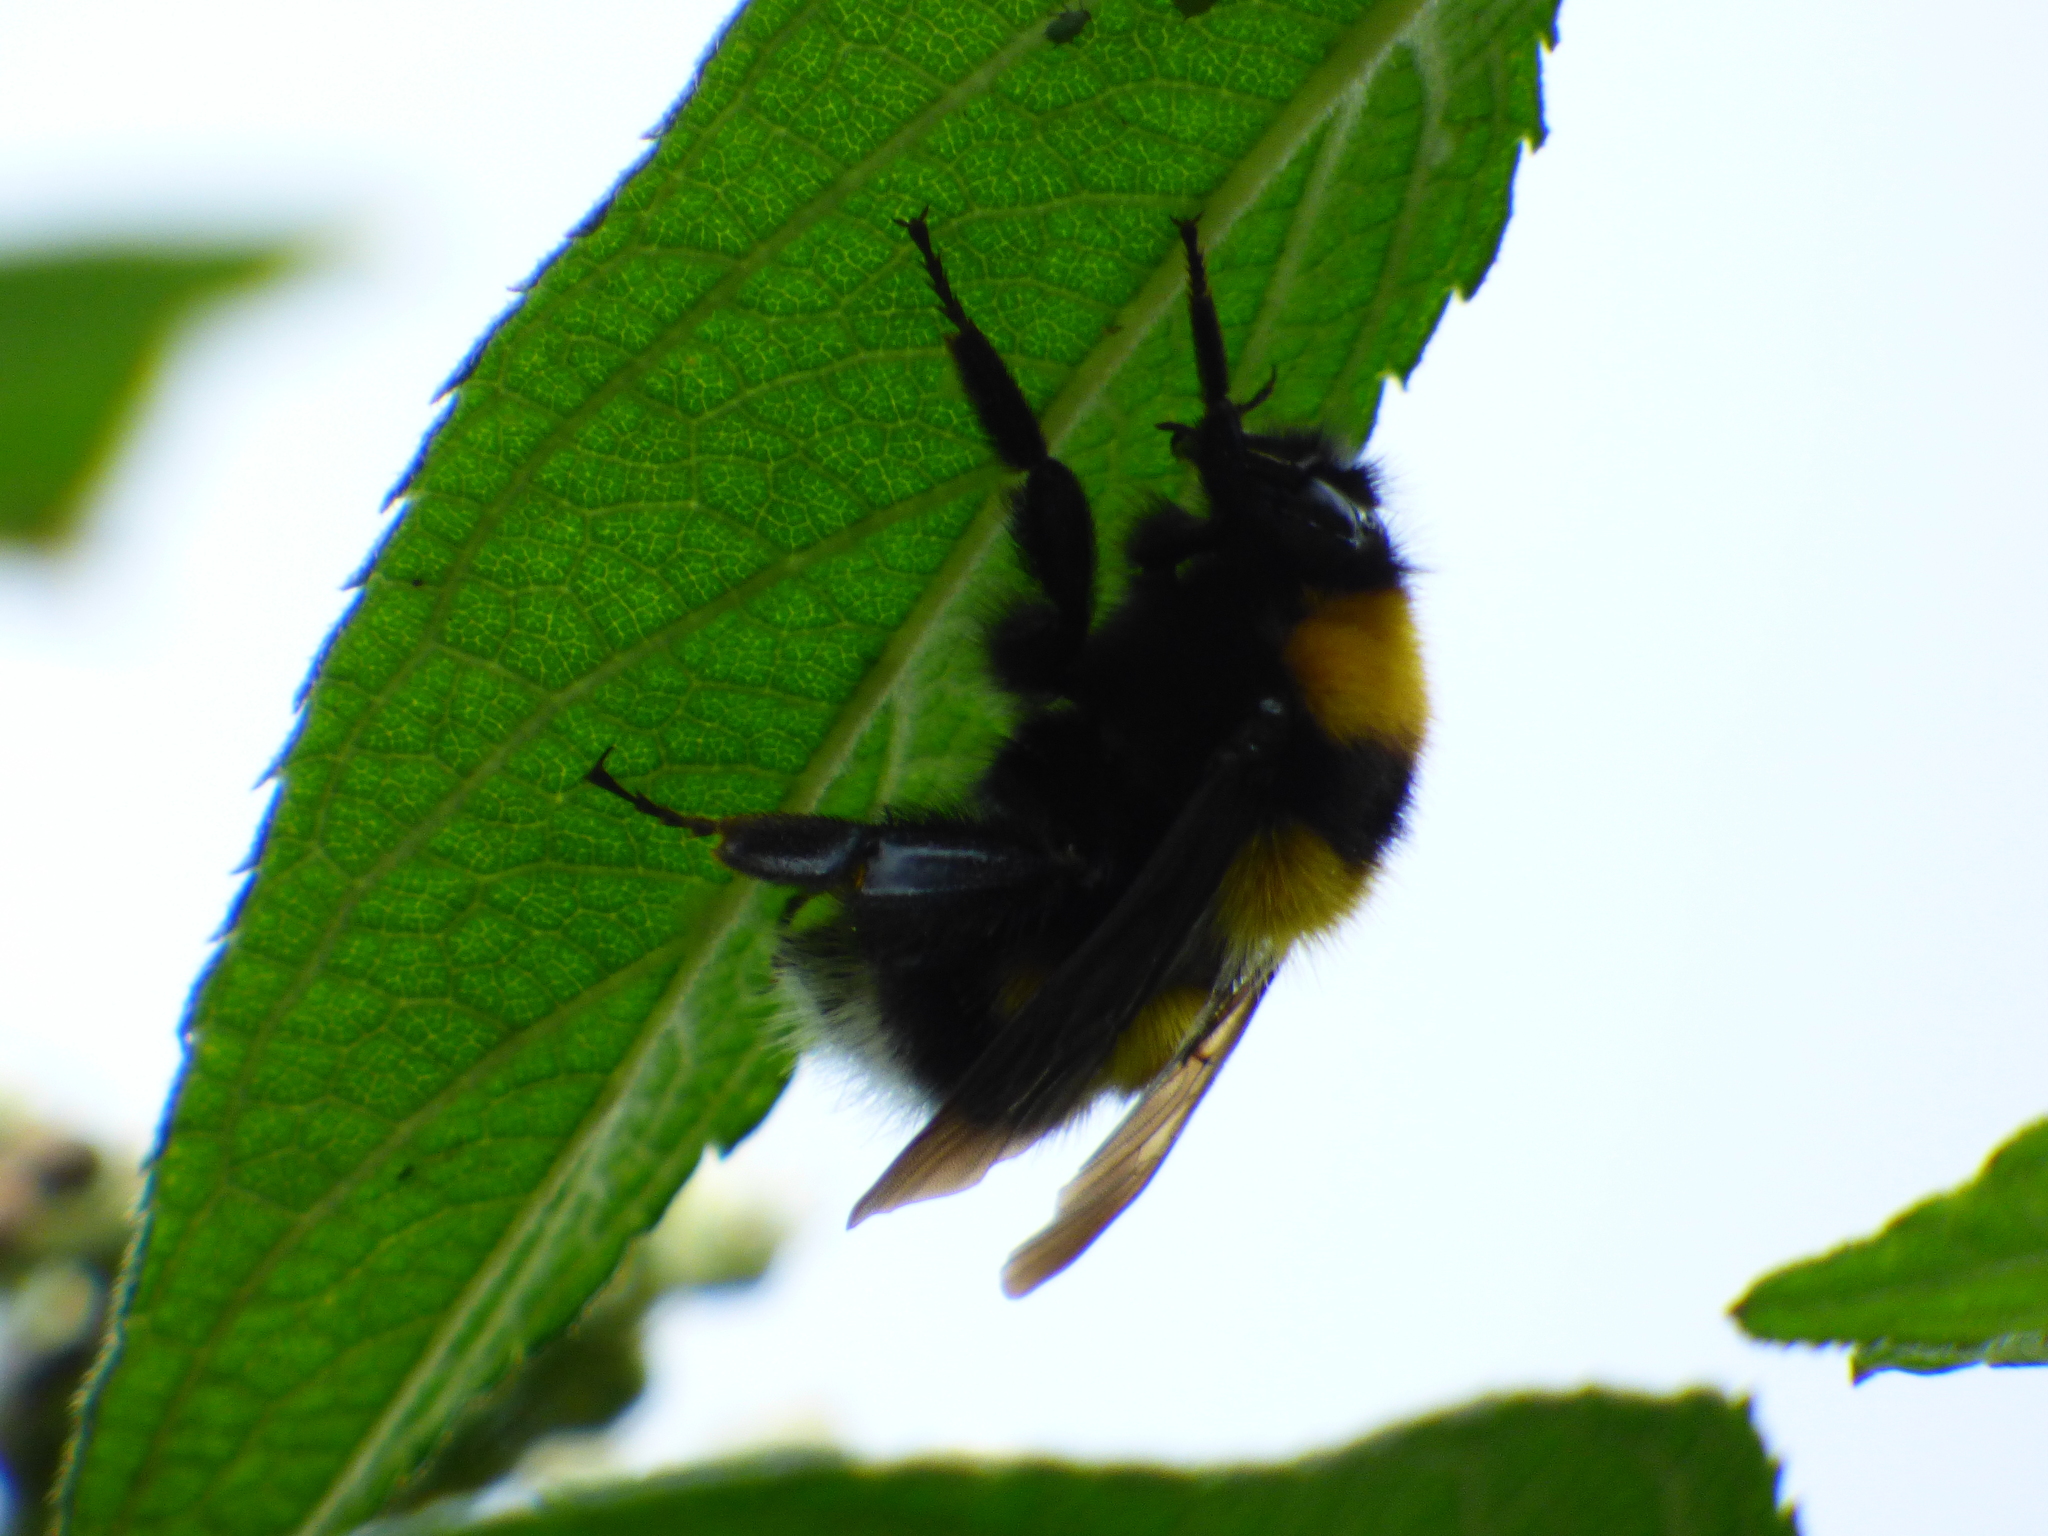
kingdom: Animalia
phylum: Arthropoda
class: Insecta
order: Hymenoptera
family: Apidae
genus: Bombus
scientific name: Bombus hortulanus
